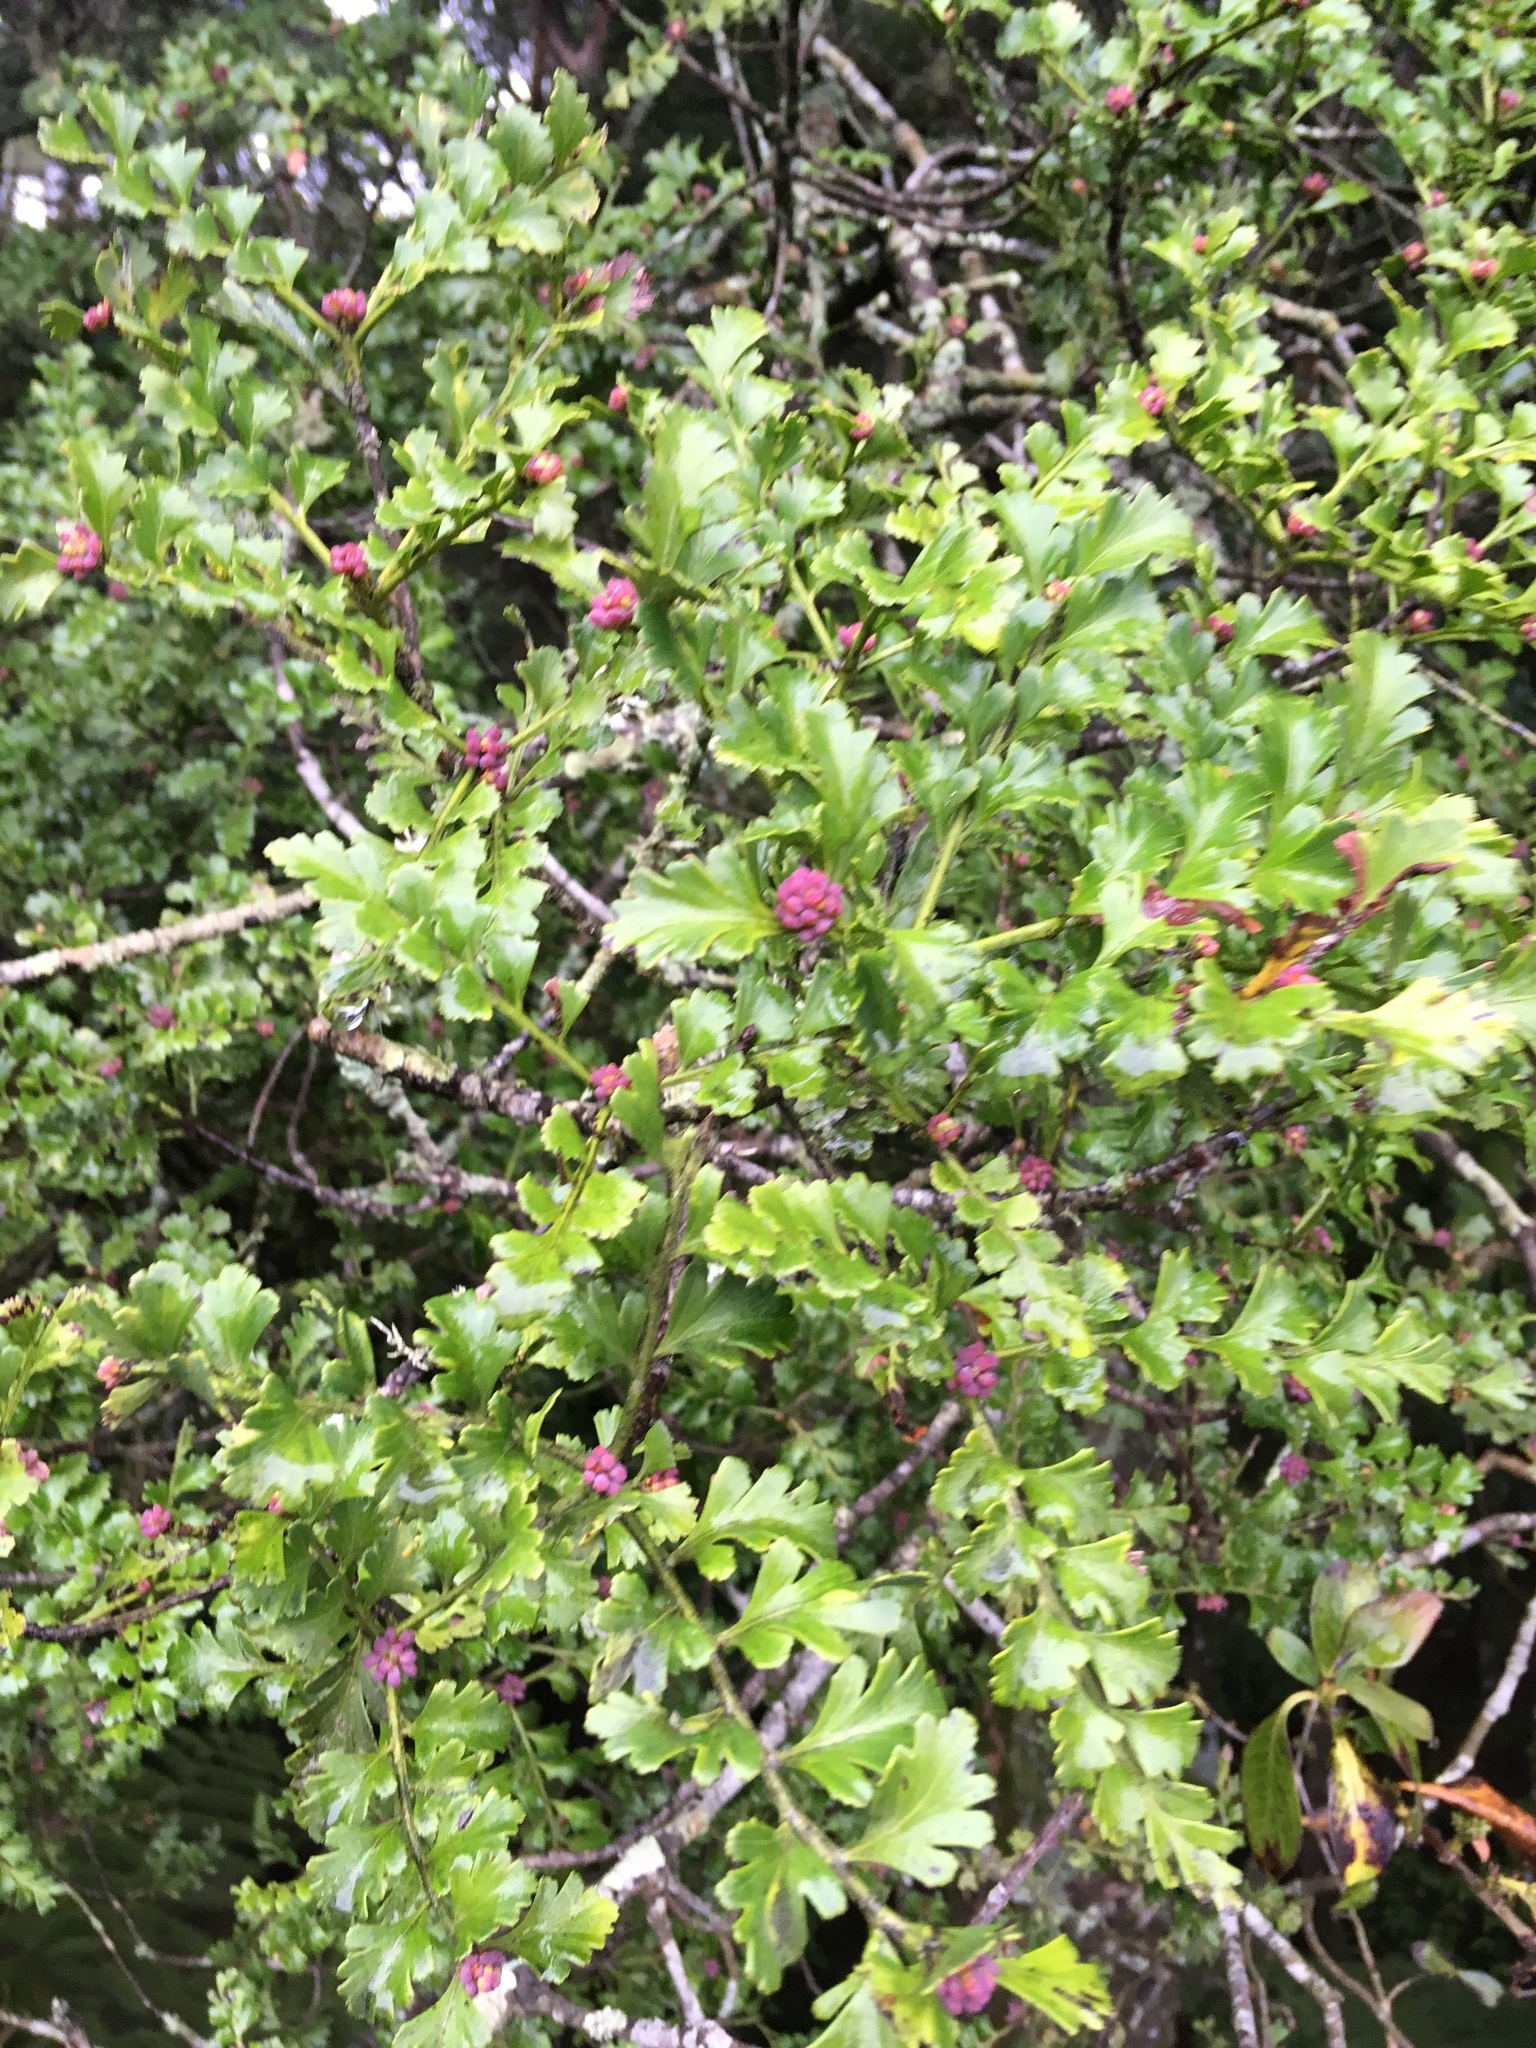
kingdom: Plantae
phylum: Tracheophyta
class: Pinopsida
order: Pinales
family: Phyllocladaceae
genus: Phyllocladus
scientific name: Phyllocladus trichomanoides
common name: Celery pine
